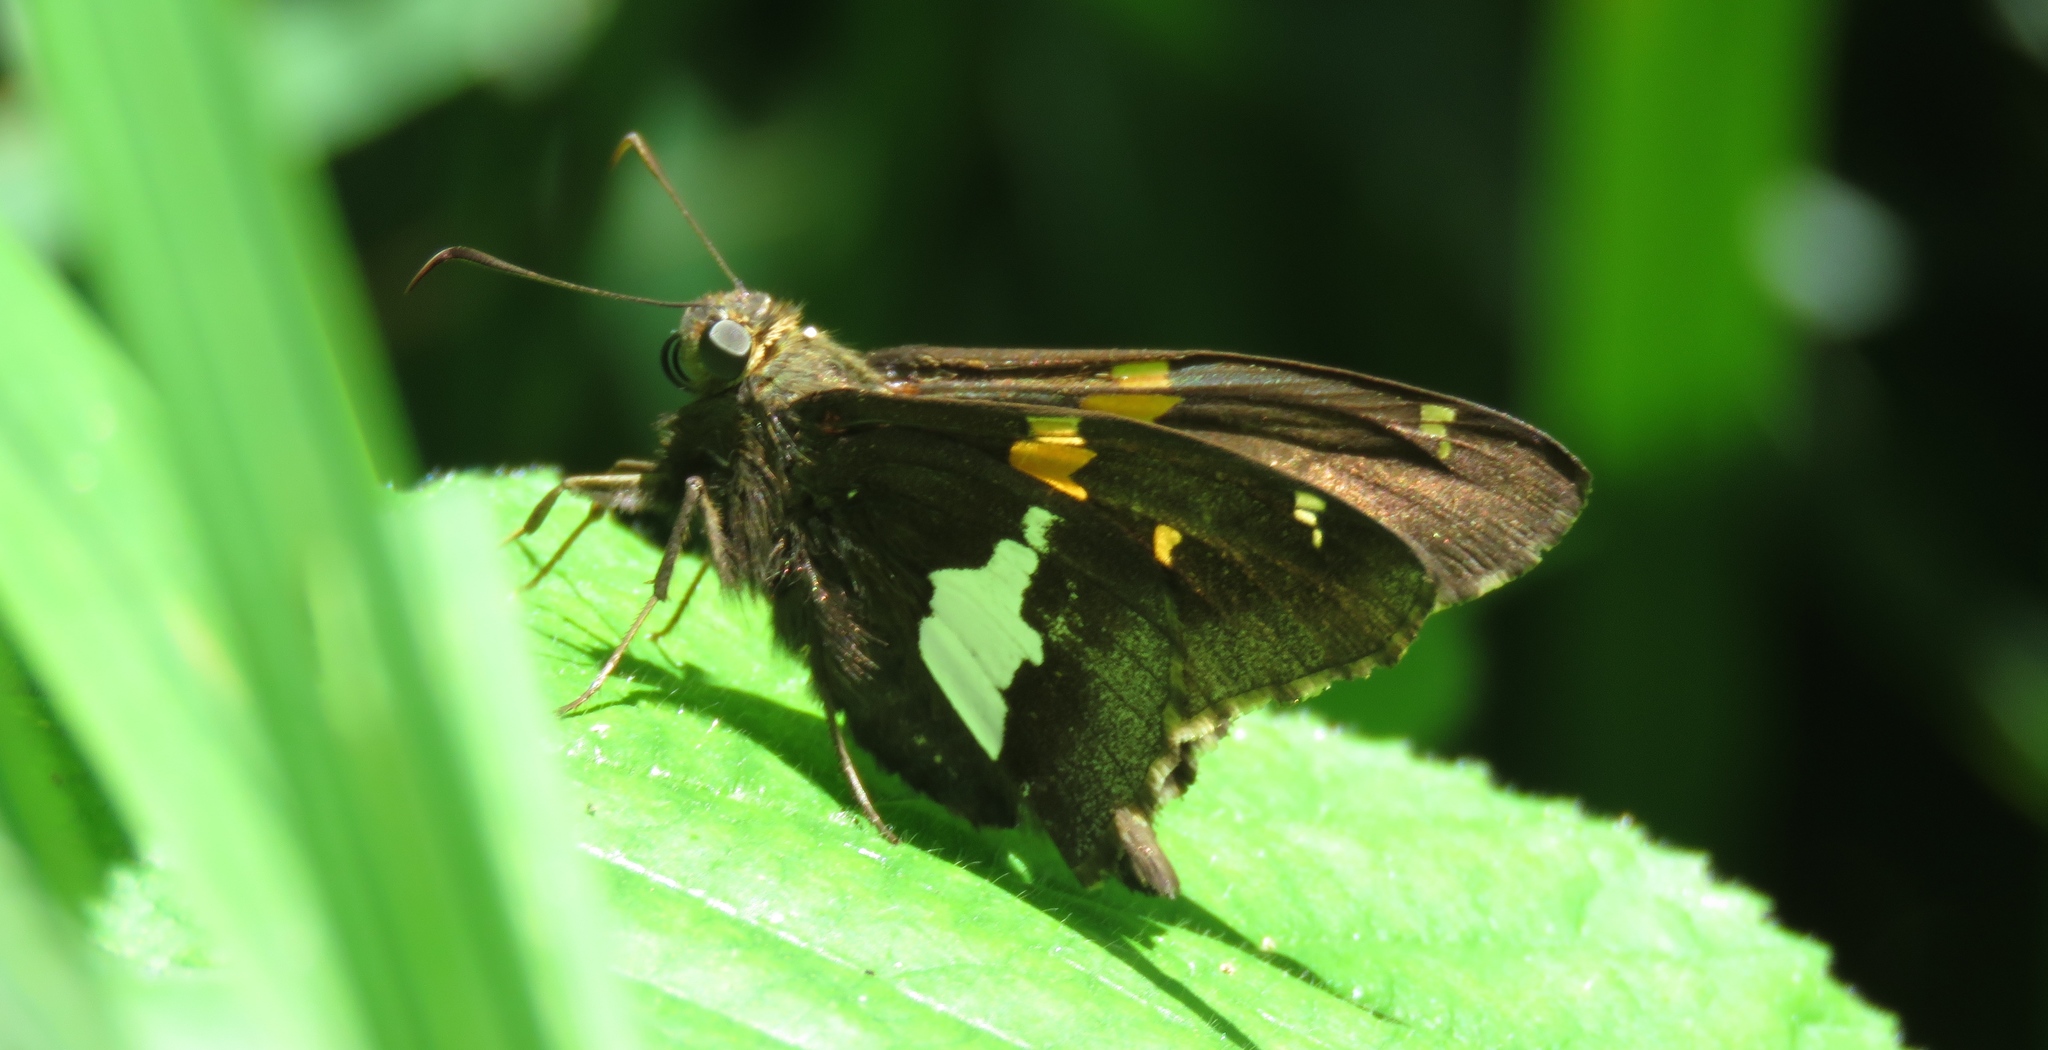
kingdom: Animalia
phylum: Arthropoda
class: Insecta
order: Lepidoptera
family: Hesperiidae
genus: Epargyreus
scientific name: Epargyreus clarus
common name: Silver-spotted skipper
